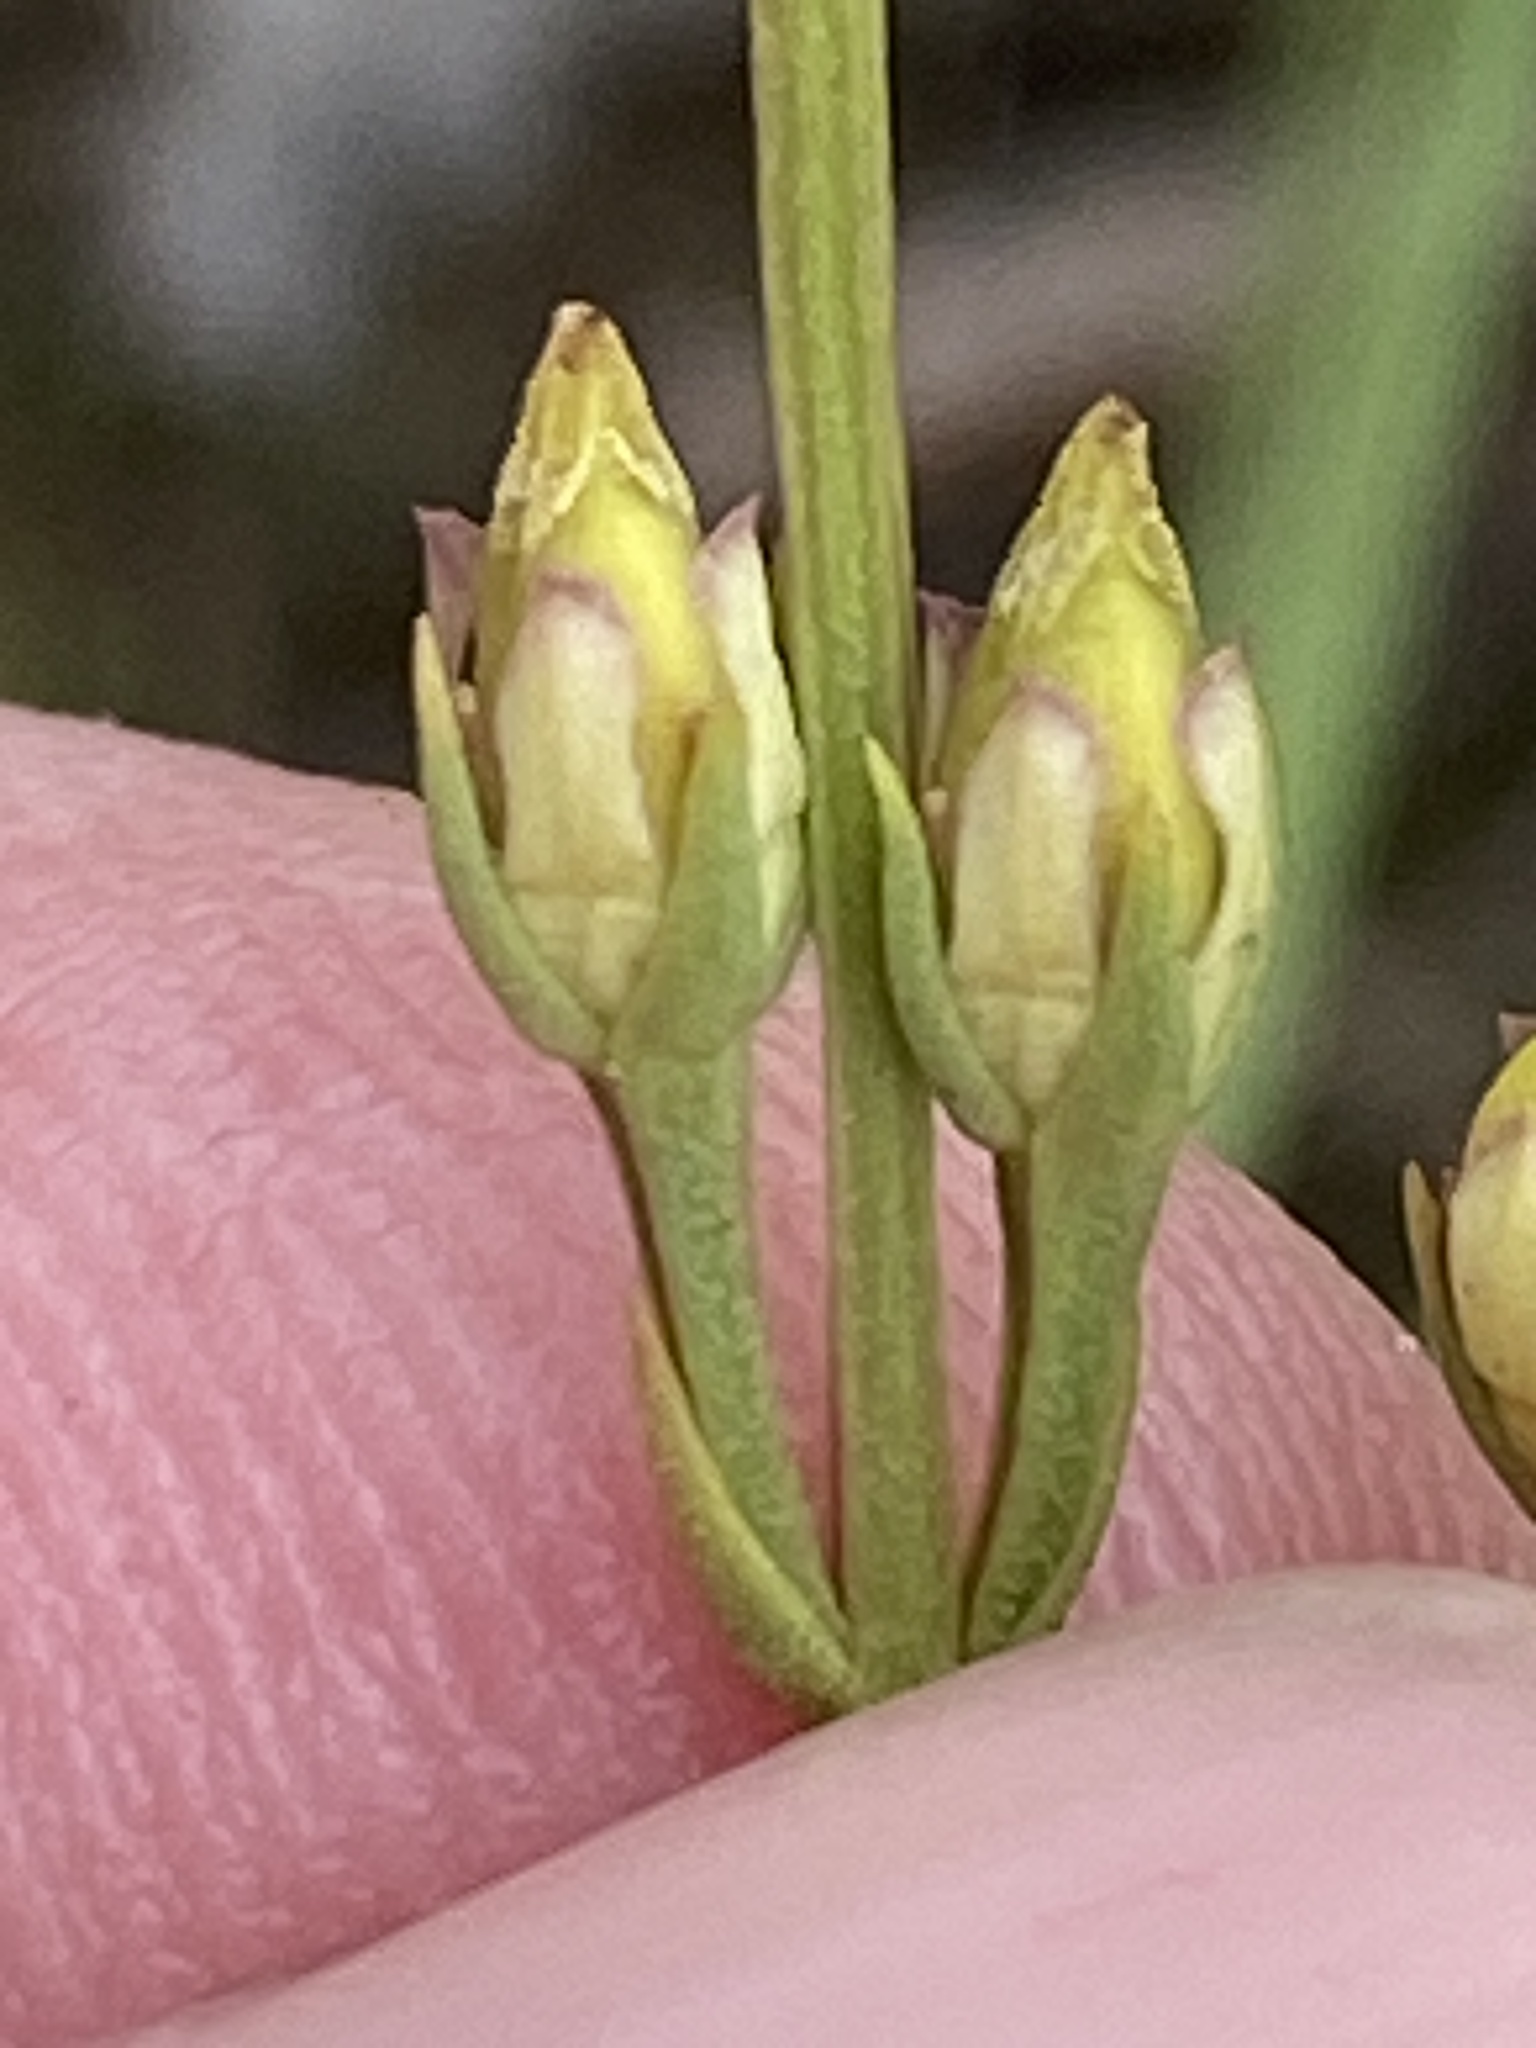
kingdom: Plantae
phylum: Tracheophyta
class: Magnoliopsida
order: Gentianales
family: Gentianaceae
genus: Bartonia
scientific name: Bartonia virginica
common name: Yellow bartonia
